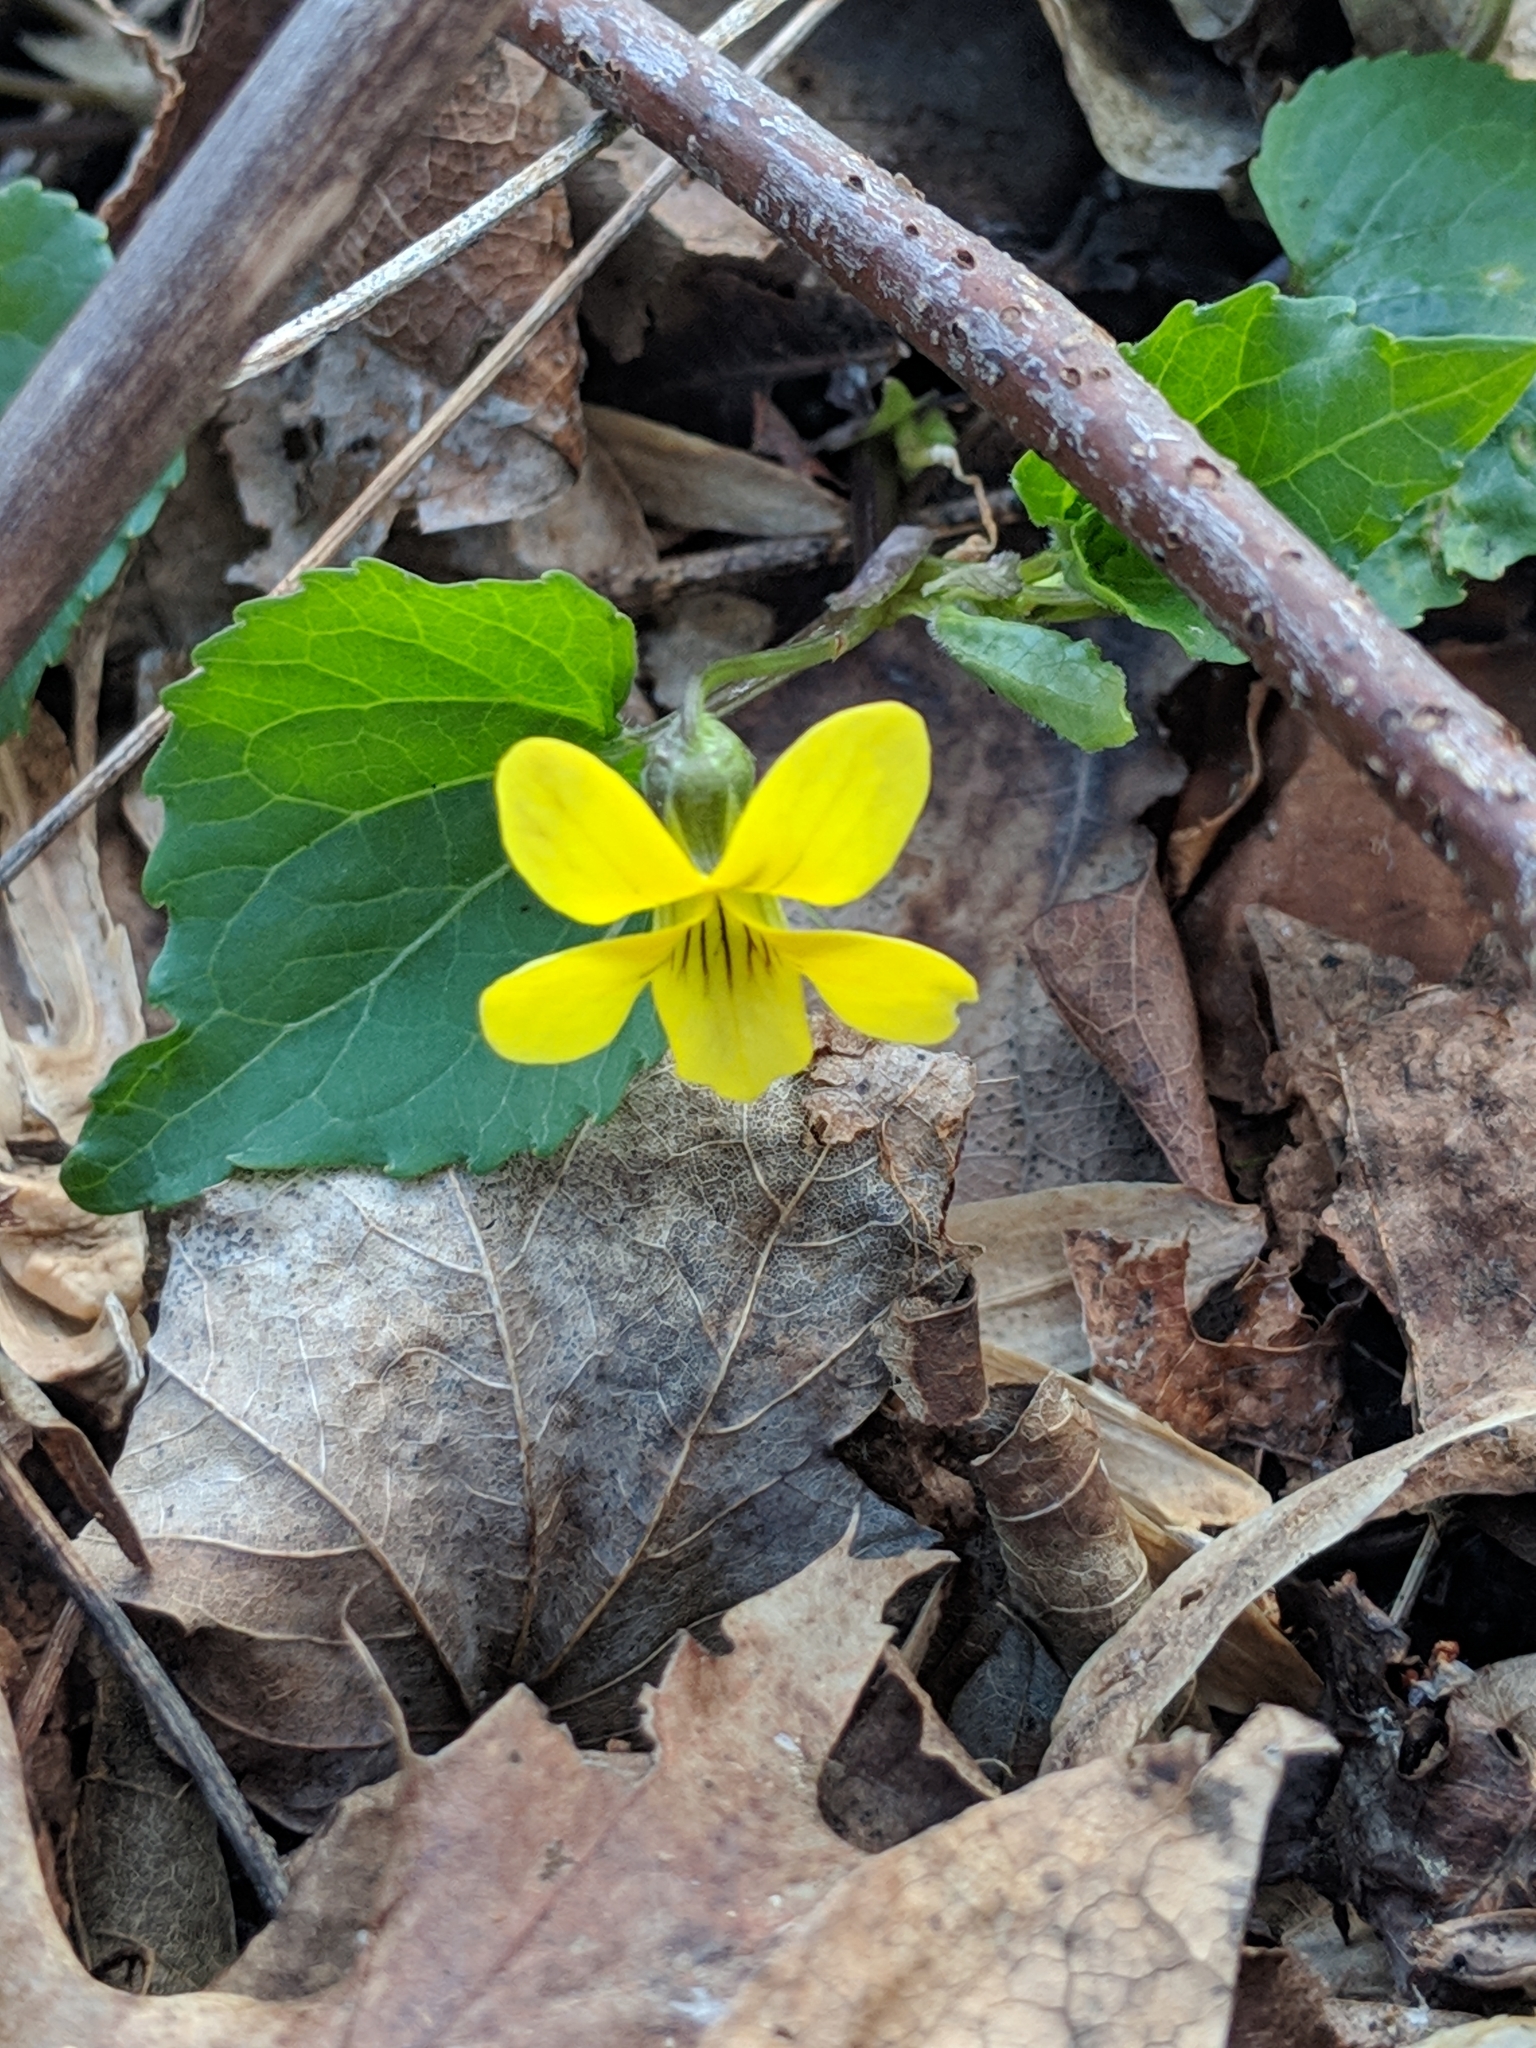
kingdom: Plantae
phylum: Tracheophyta
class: Magnoliopsida
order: Malpighiales
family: Violaceae
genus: Viola
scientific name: Viola eriocarpa
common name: Smooth yellow violet
